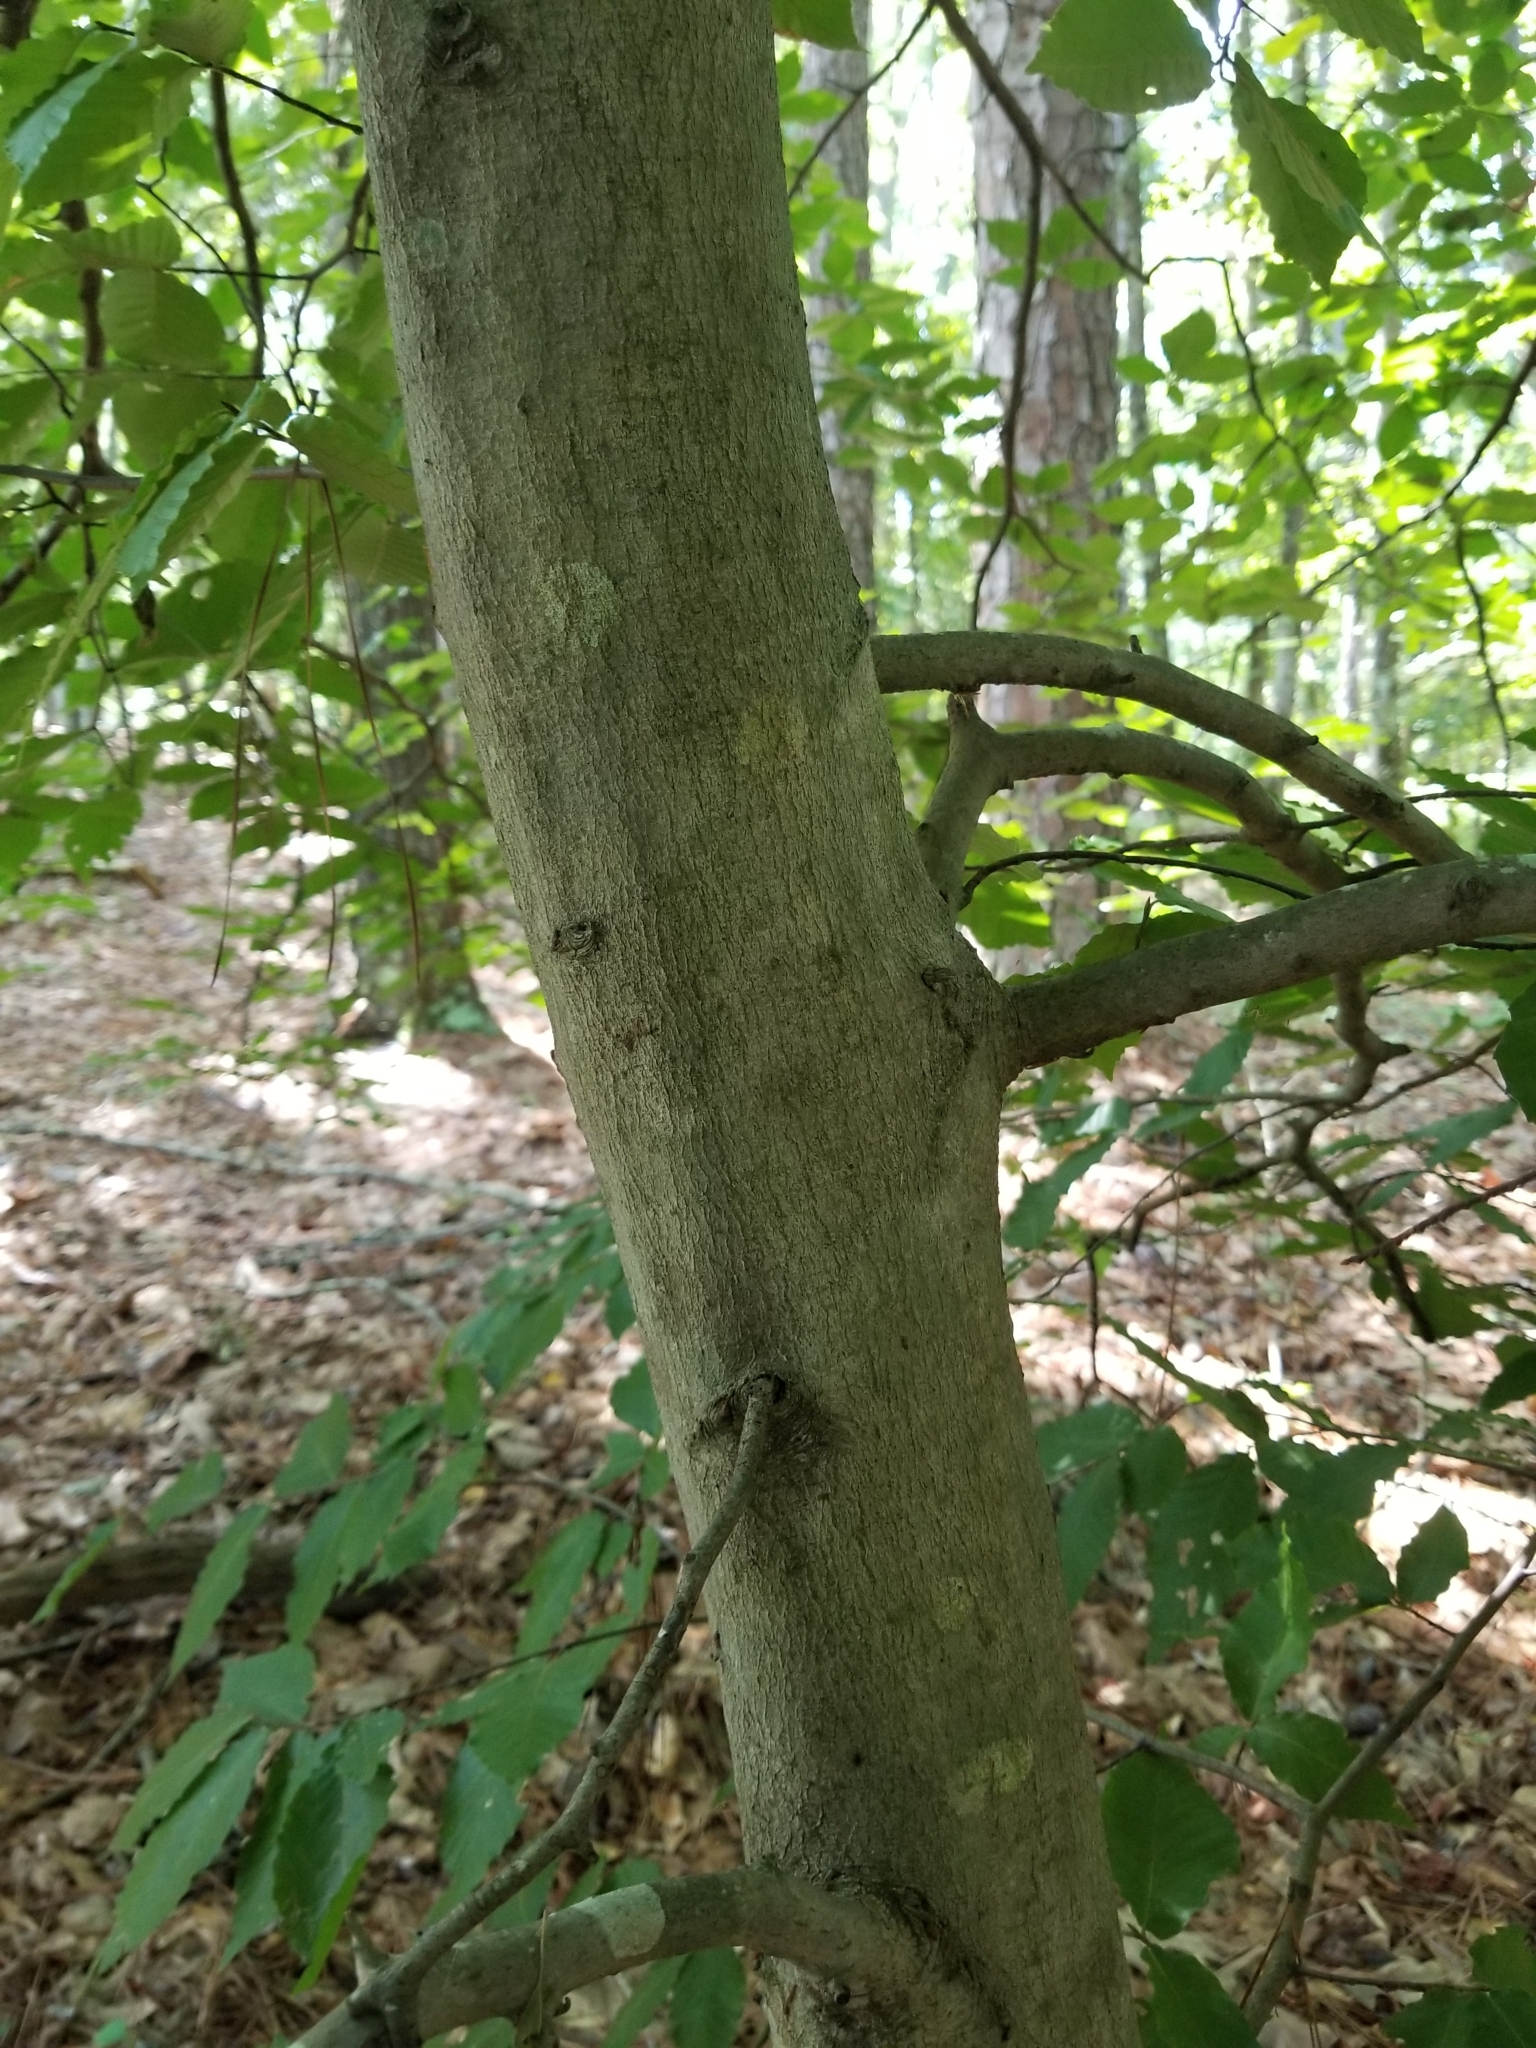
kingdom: Plantae
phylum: Tracheophyta
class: Magnoliopsida
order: Fagales
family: Fagaceae
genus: Fagus
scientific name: Fagus grandifolia
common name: American beech
